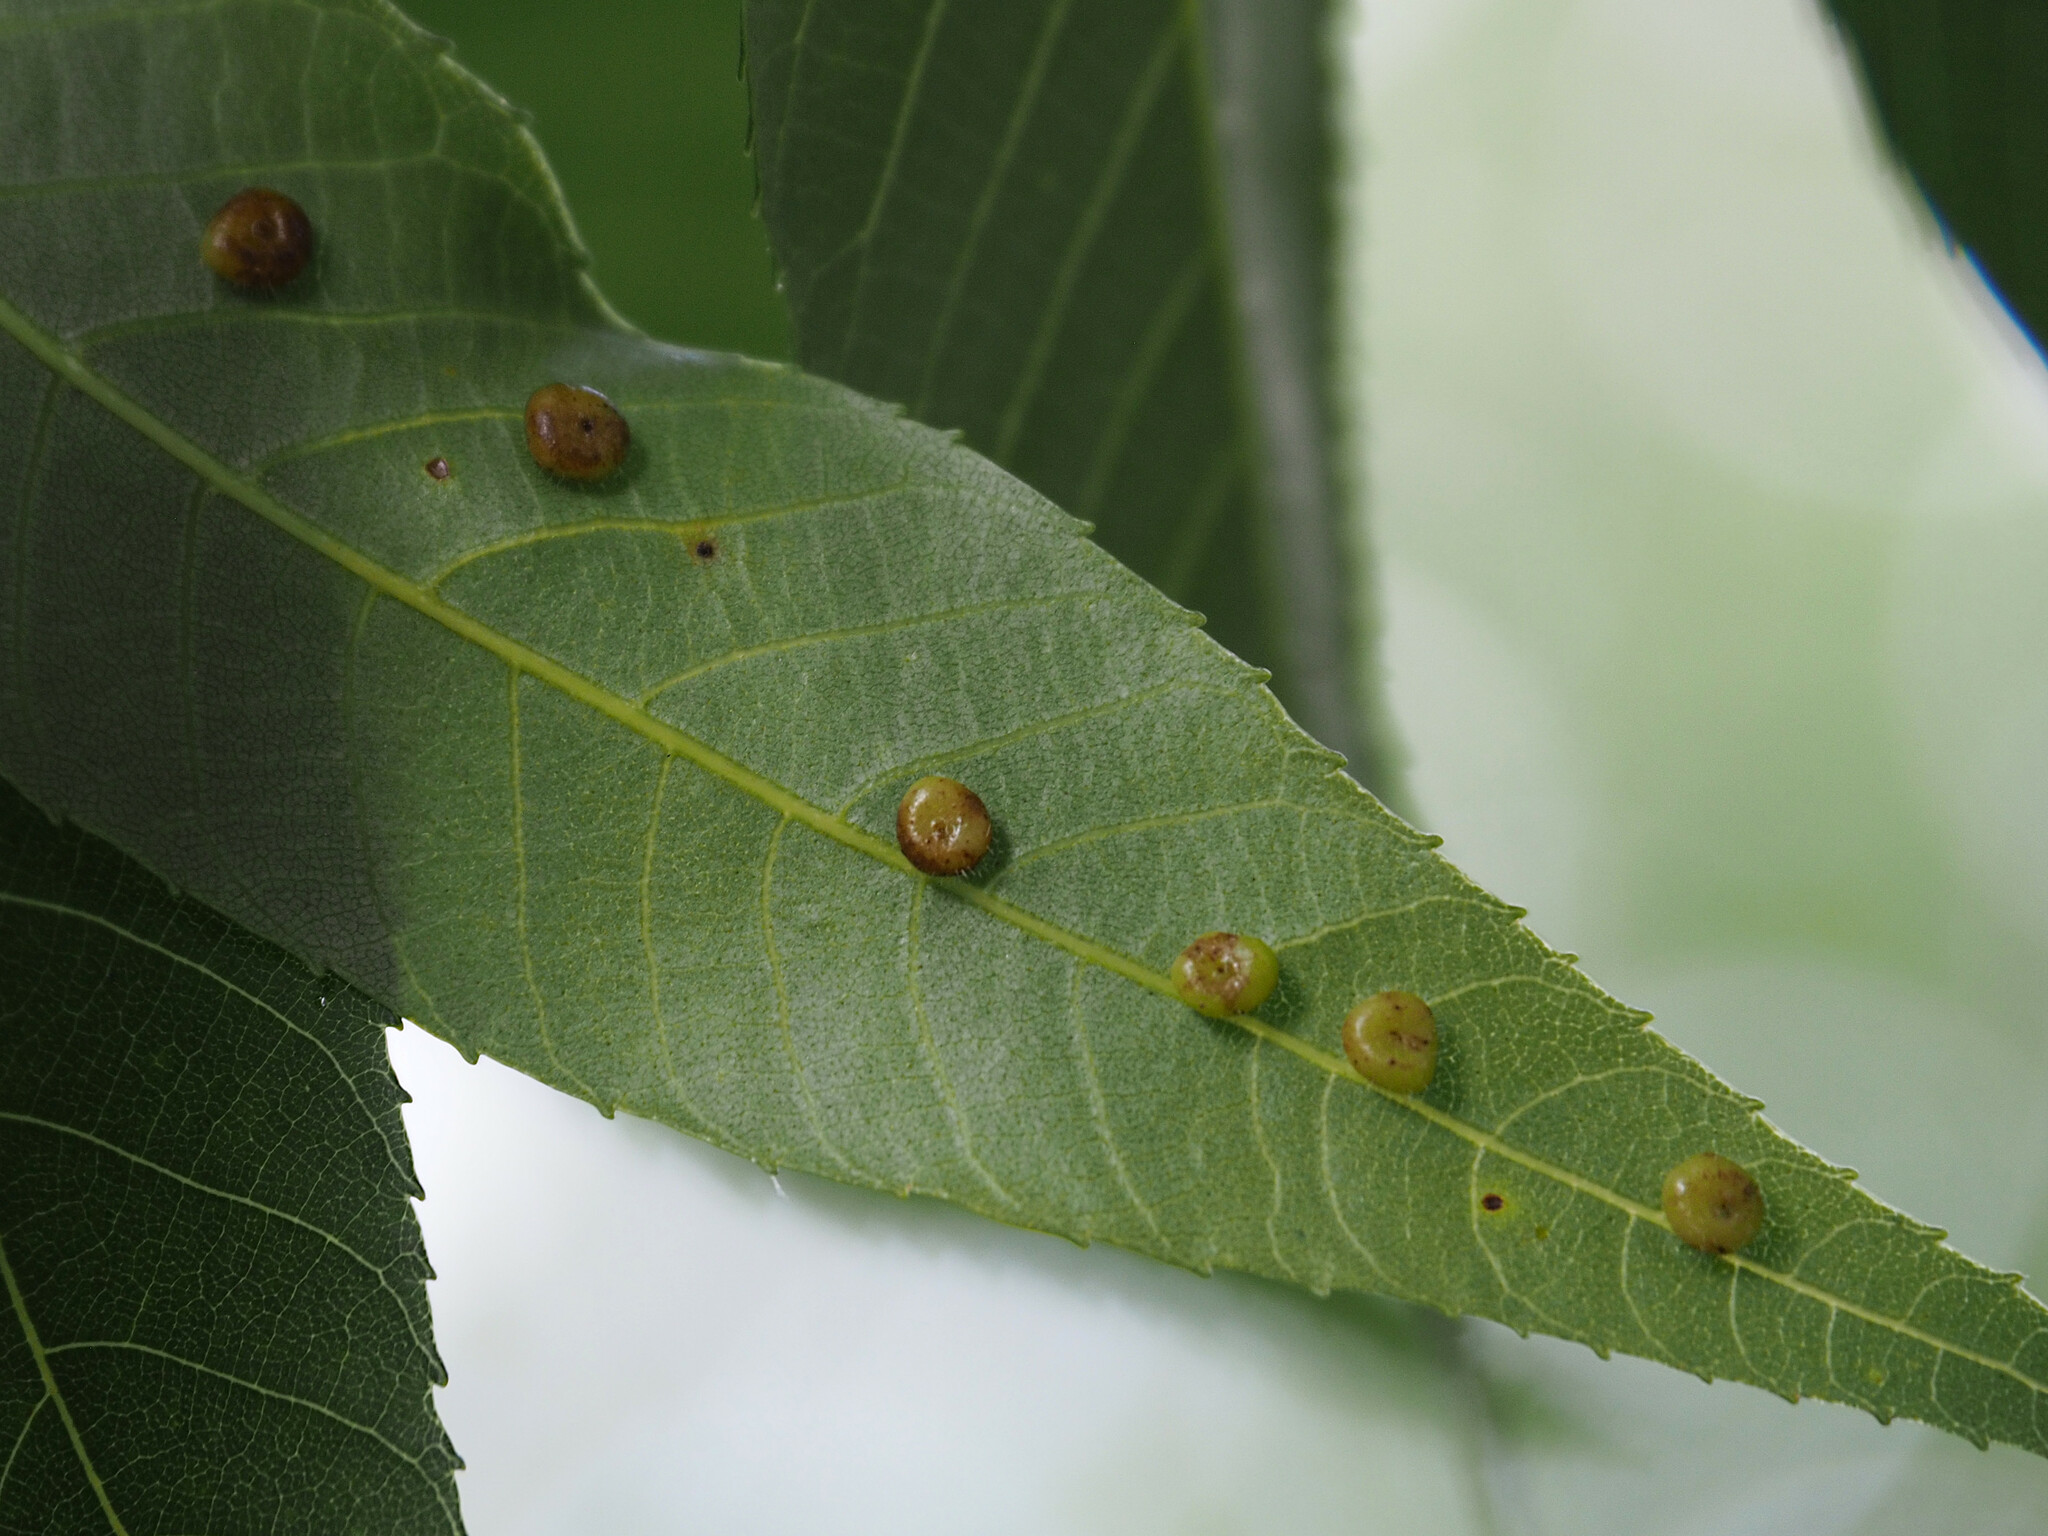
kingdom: Animalia
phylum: Arthropoda
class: Insecta
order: Diptera
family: Cecidomyiidae
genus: Caryomyia
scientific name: Caryomyia thompsoni
